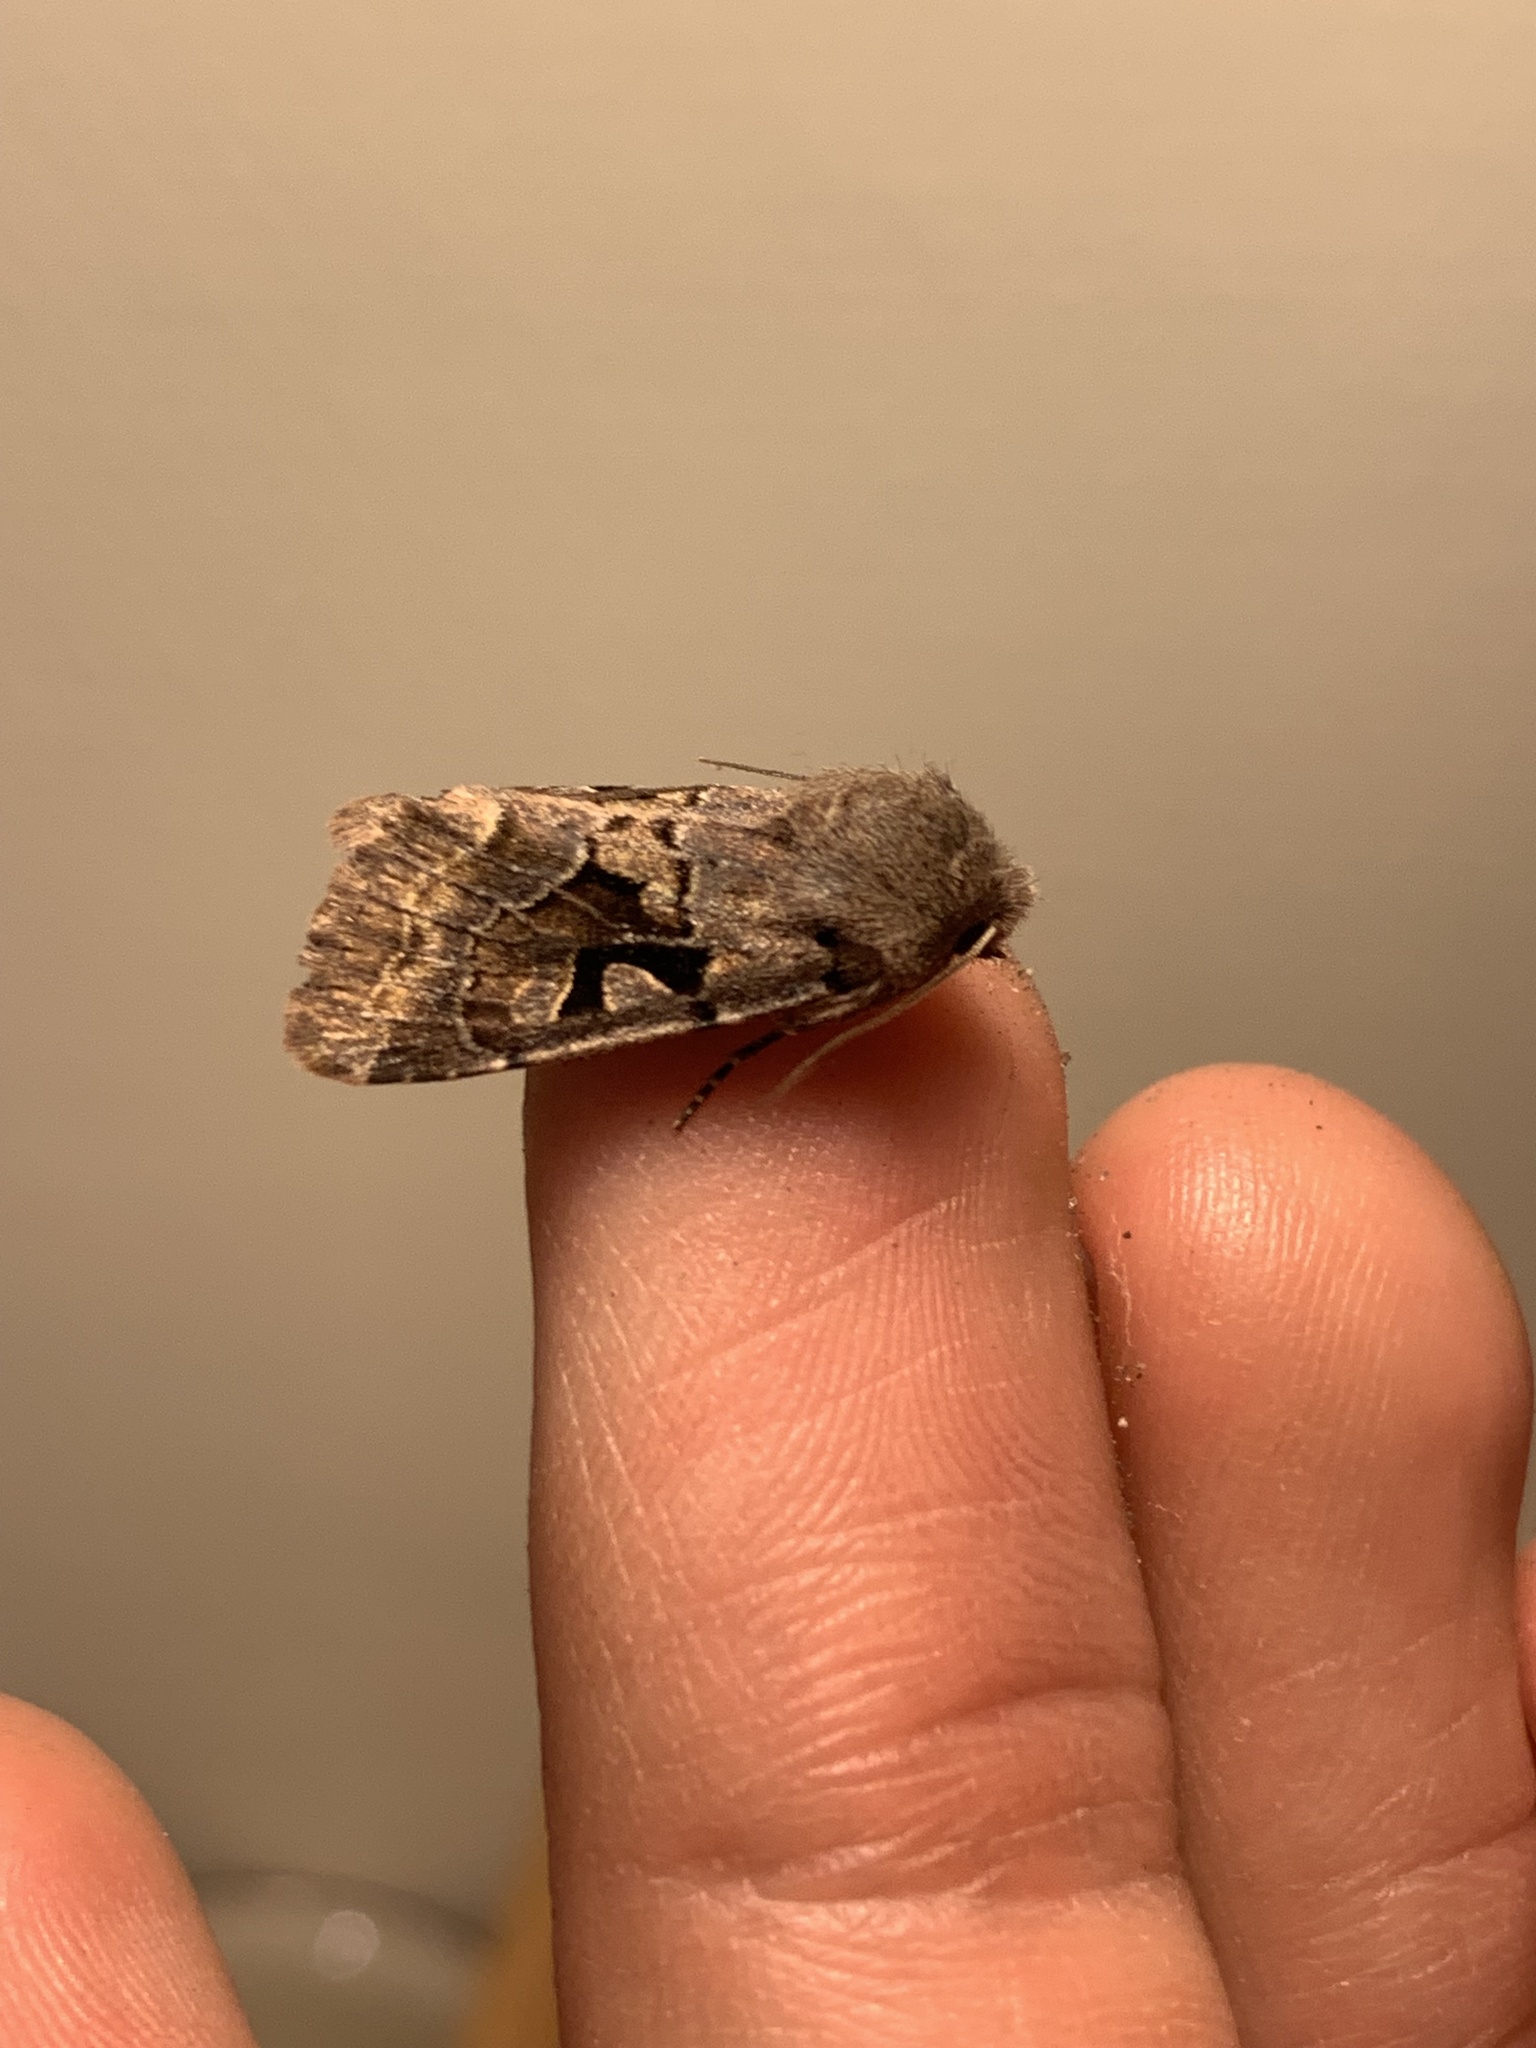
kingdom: Animalia
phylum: Arthropoda
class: Insecta
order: Lepidoptera
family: Noctuidae
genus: Orthosia
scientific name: Orthosia gothica
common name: Hebrew character
